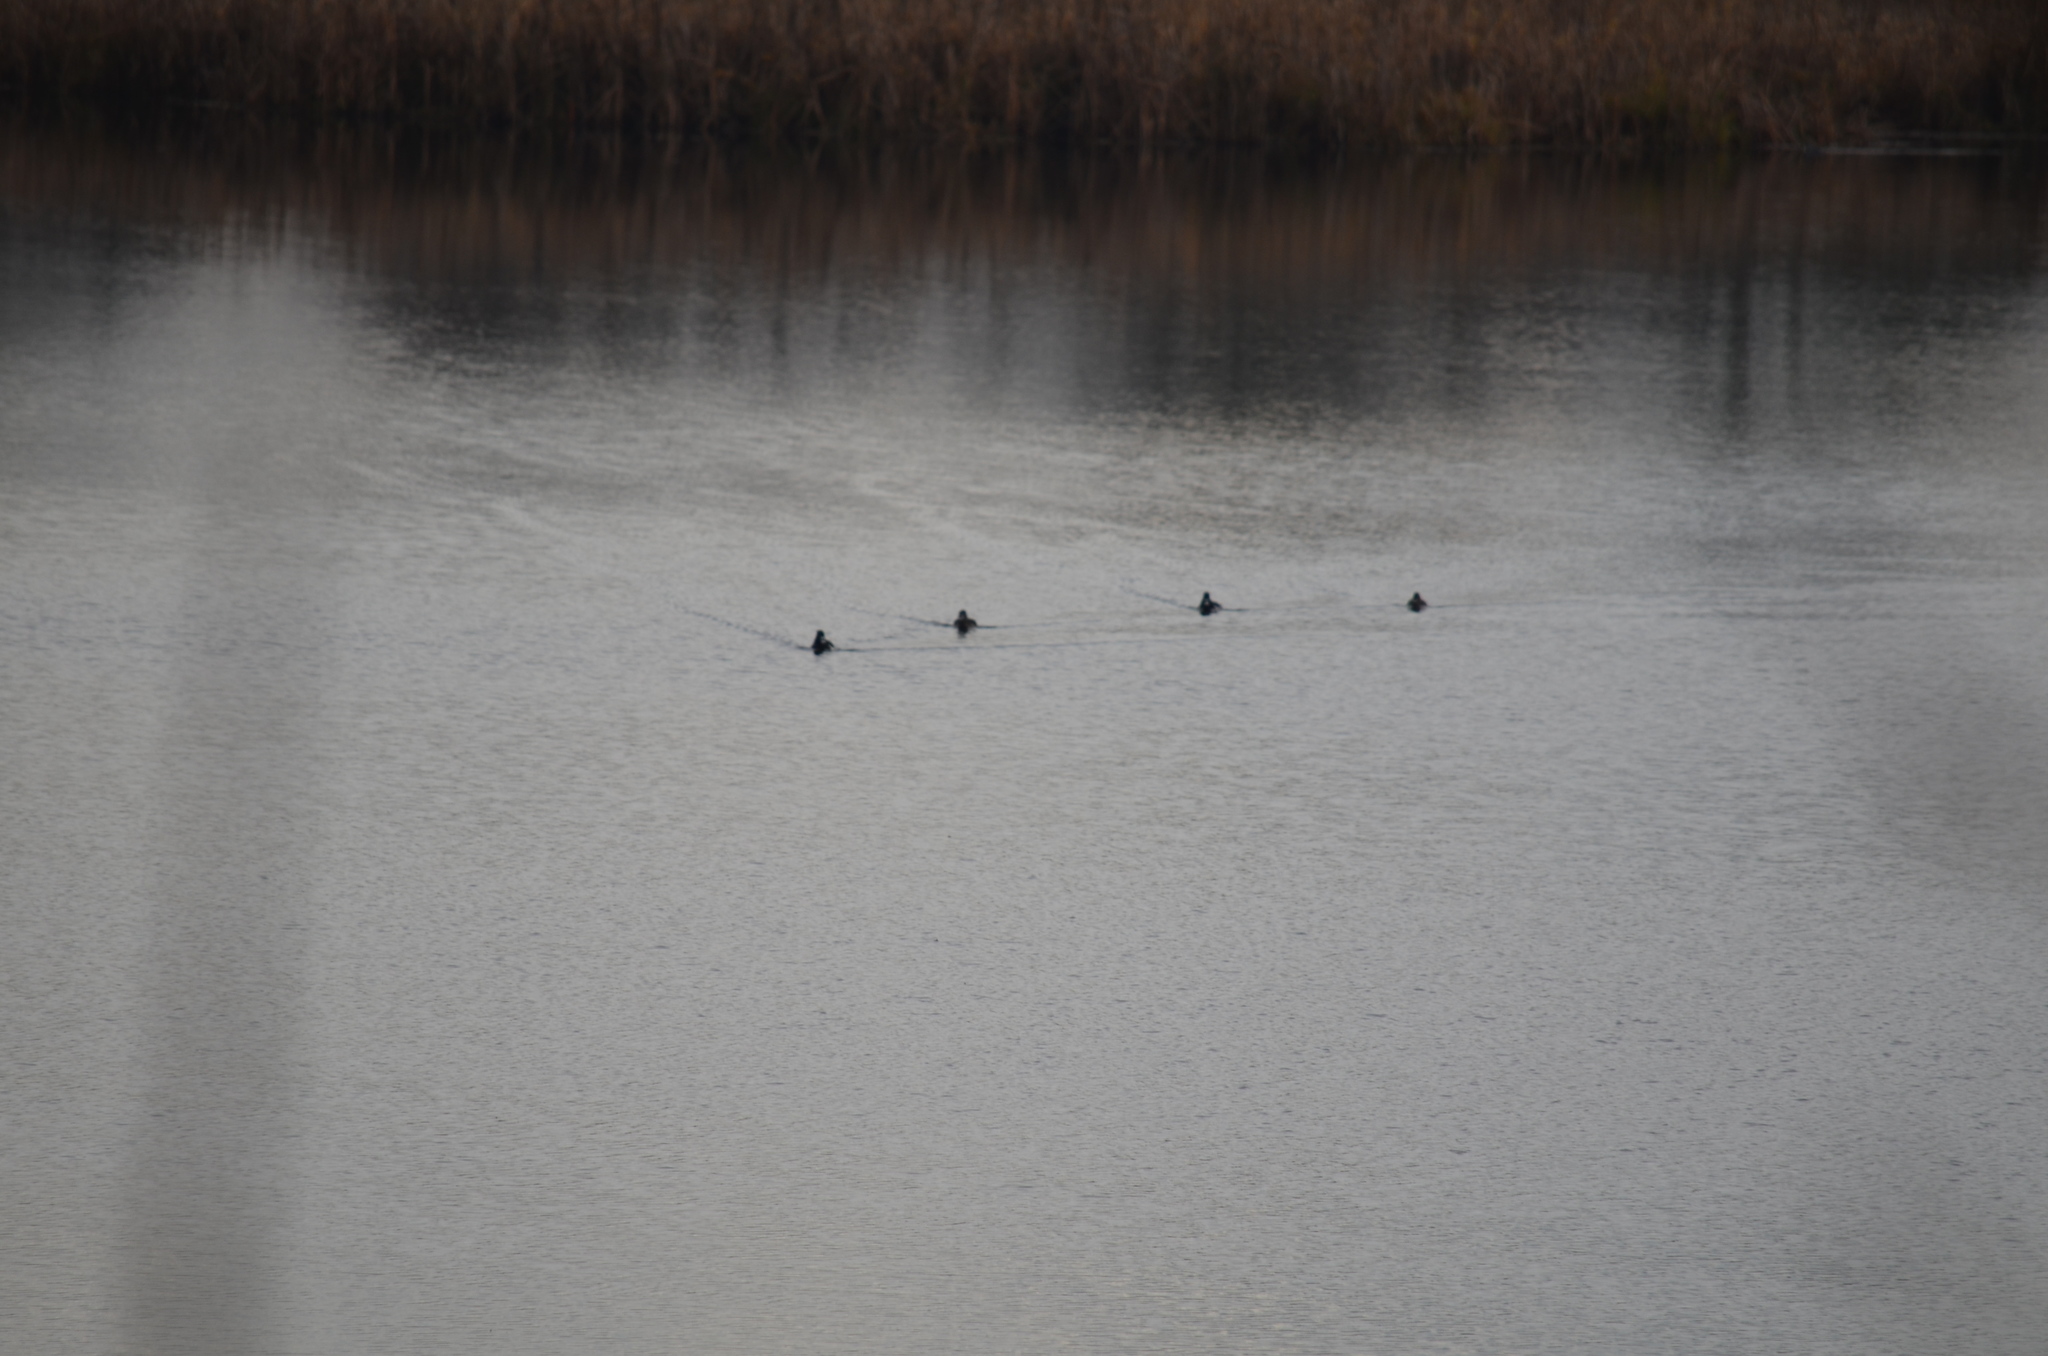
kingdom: Animalia
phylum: Chordata
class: Aves
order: Anseriformes
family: Anatidae
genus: Aythya
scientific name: Aythya collaris
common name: Ring-necked duck
